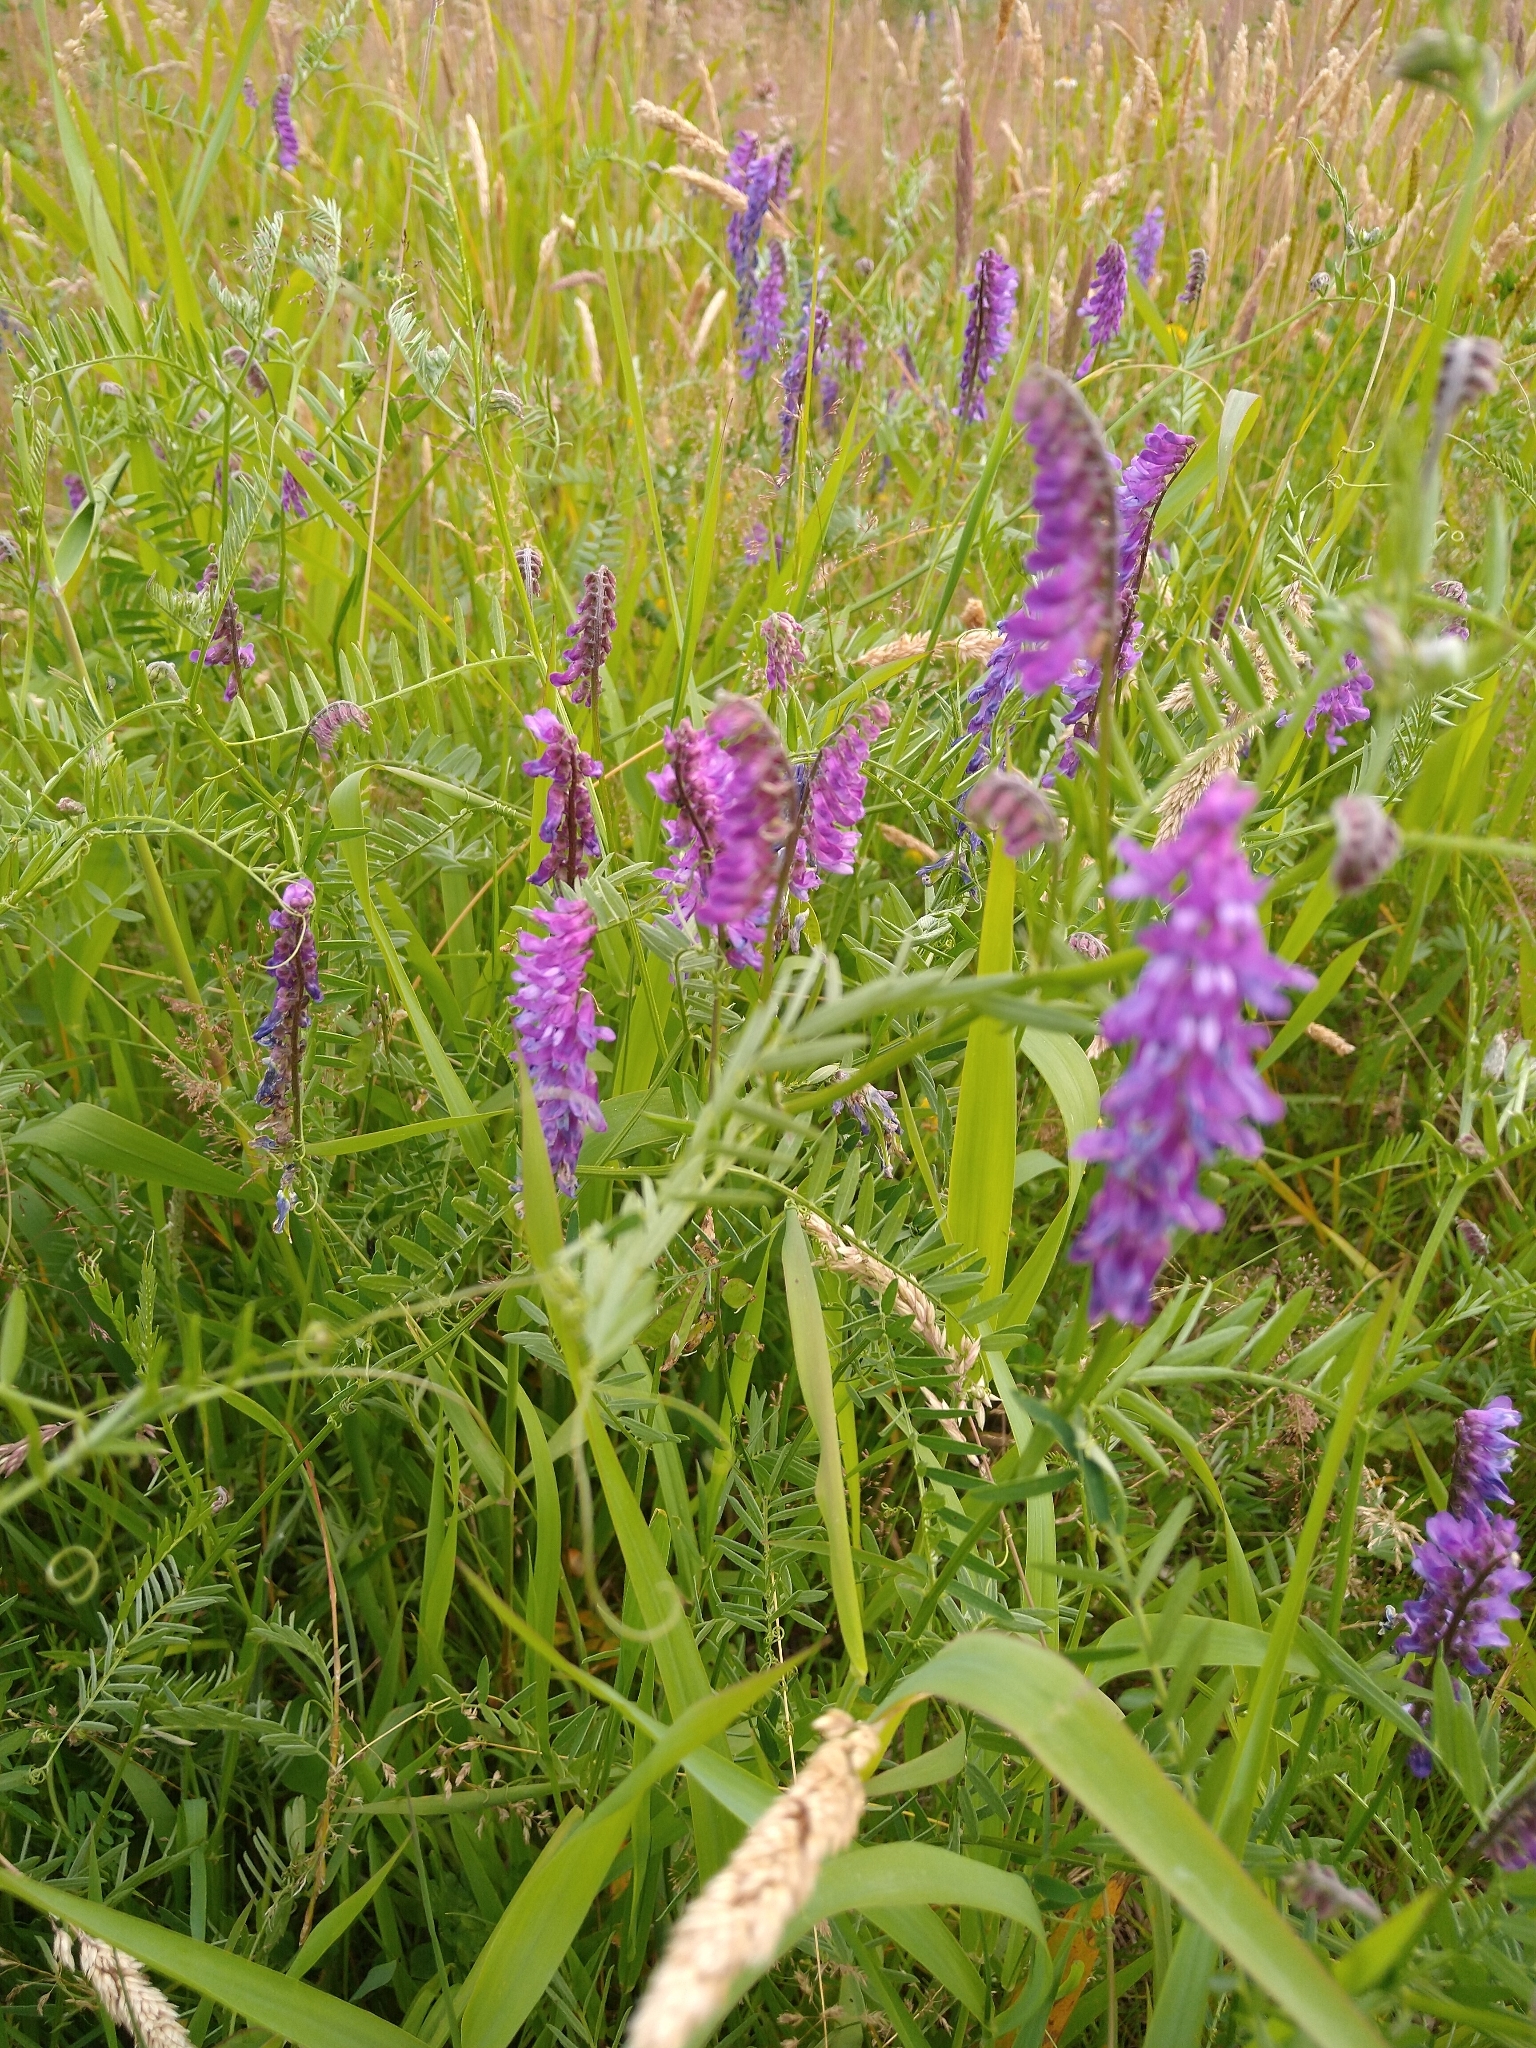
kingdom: Plantae
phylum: Tracheophyta
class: Magnoliopsida
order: Fabales
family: Fabaceae
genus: Vicia
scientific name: Vicia cracca
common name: Bird vetch
